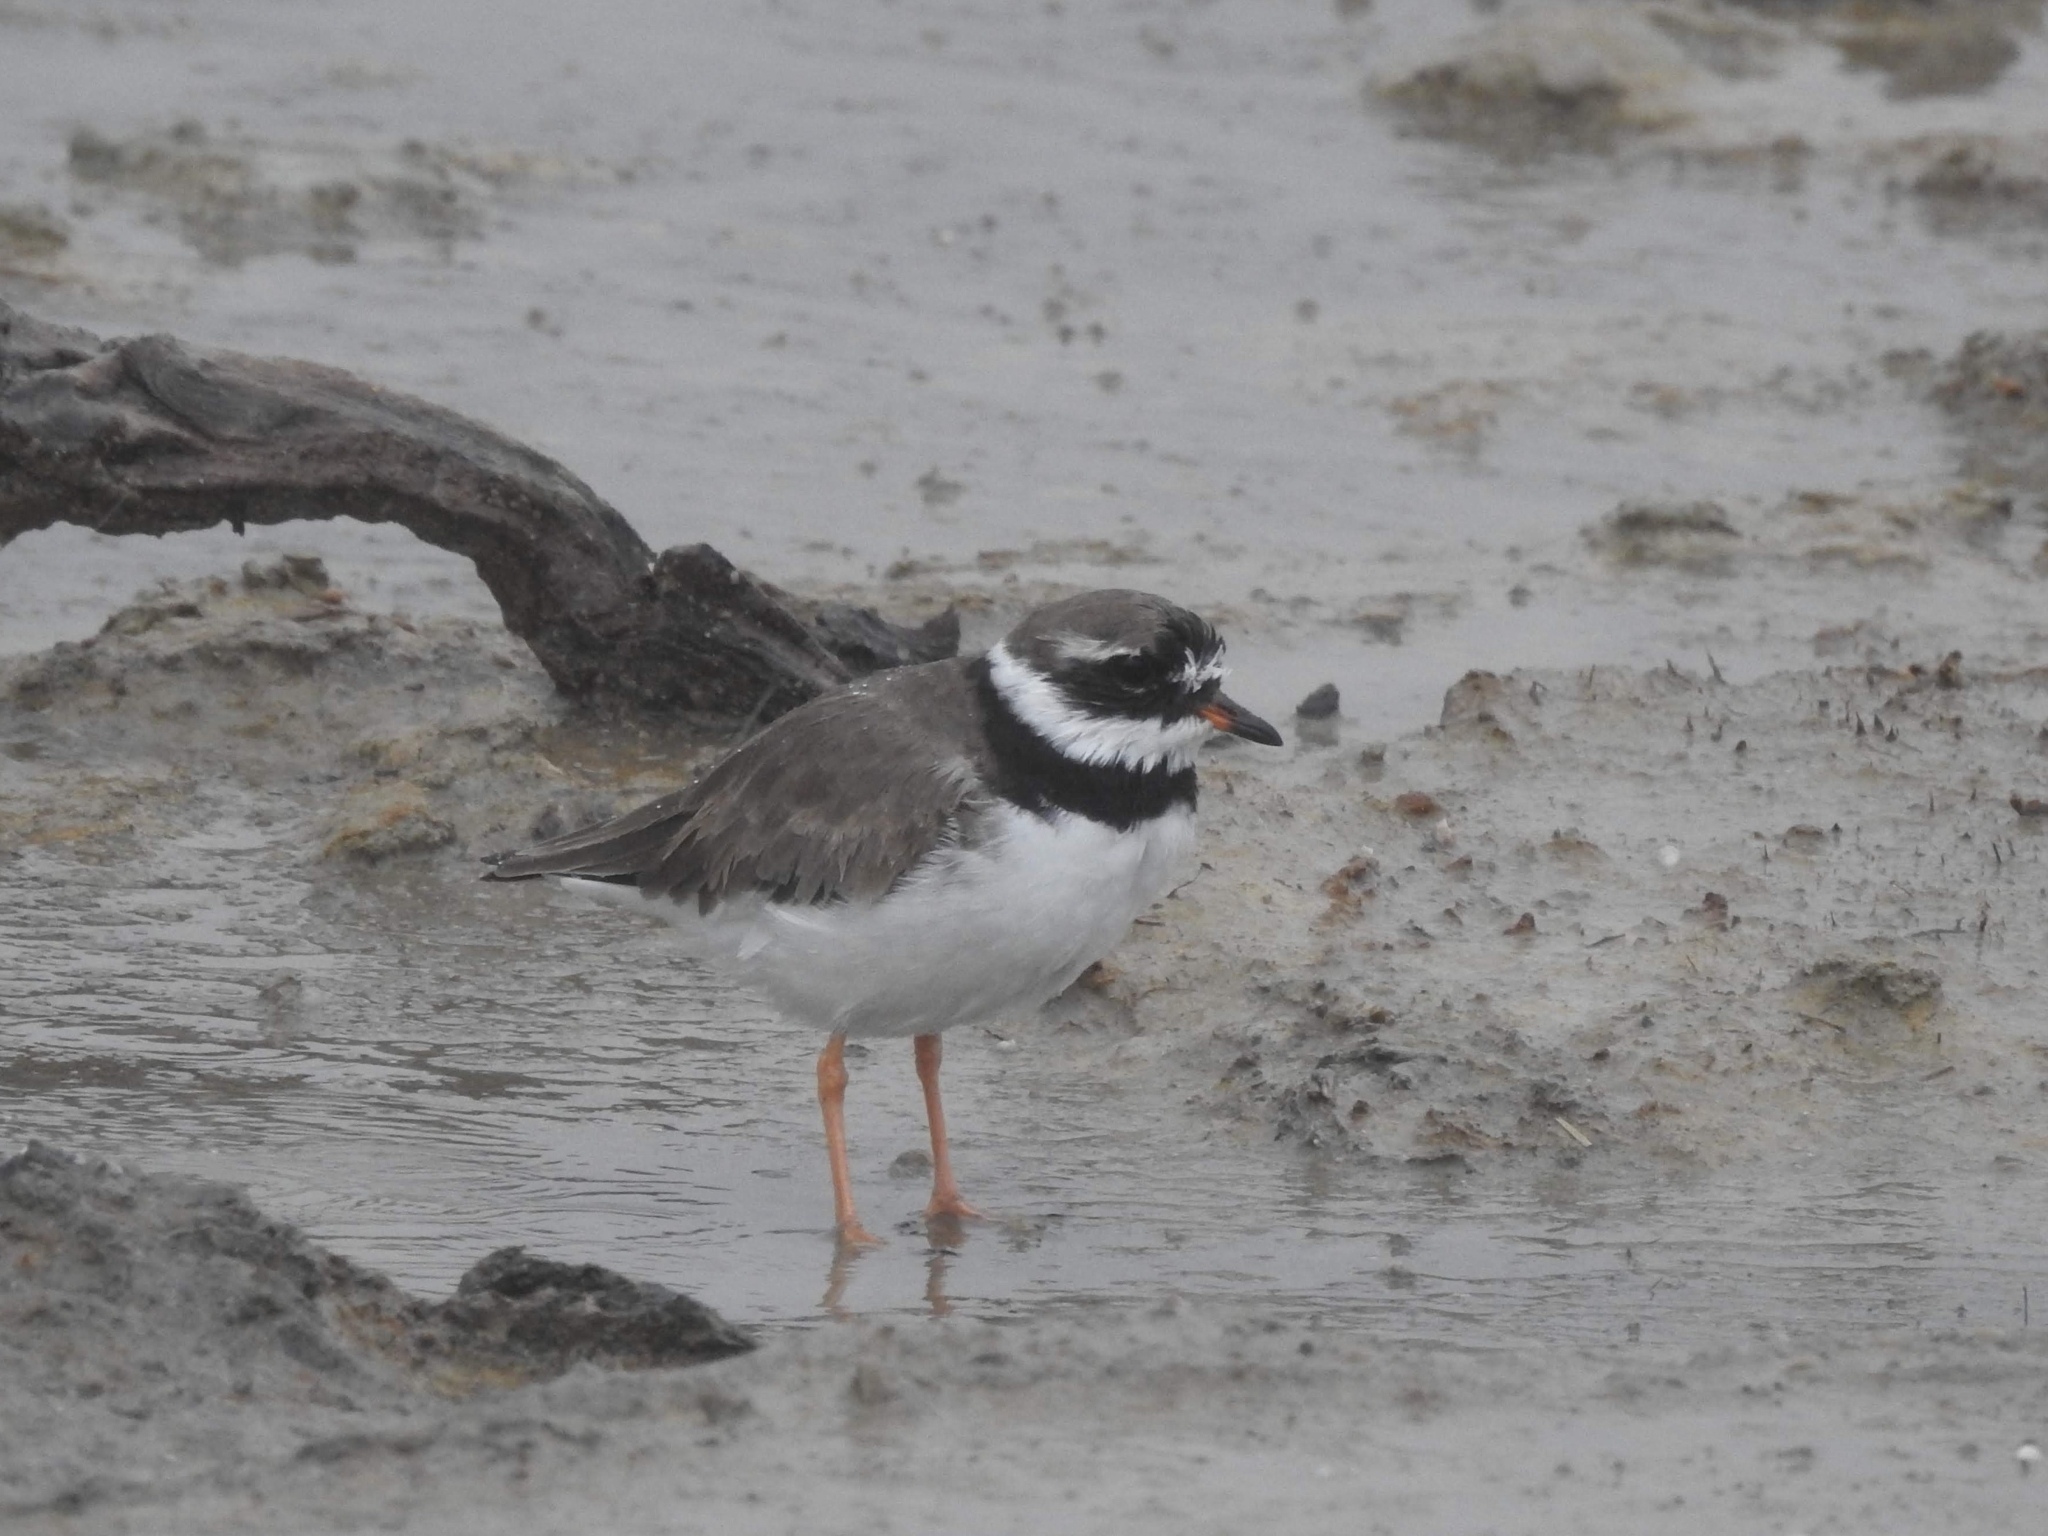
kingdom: Animalia
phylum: Chordata
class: Aves
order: Charadriiformes
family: Charadriidae
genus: Charadrius
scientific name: Charadrius hiaticula
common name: Common ringed plover
